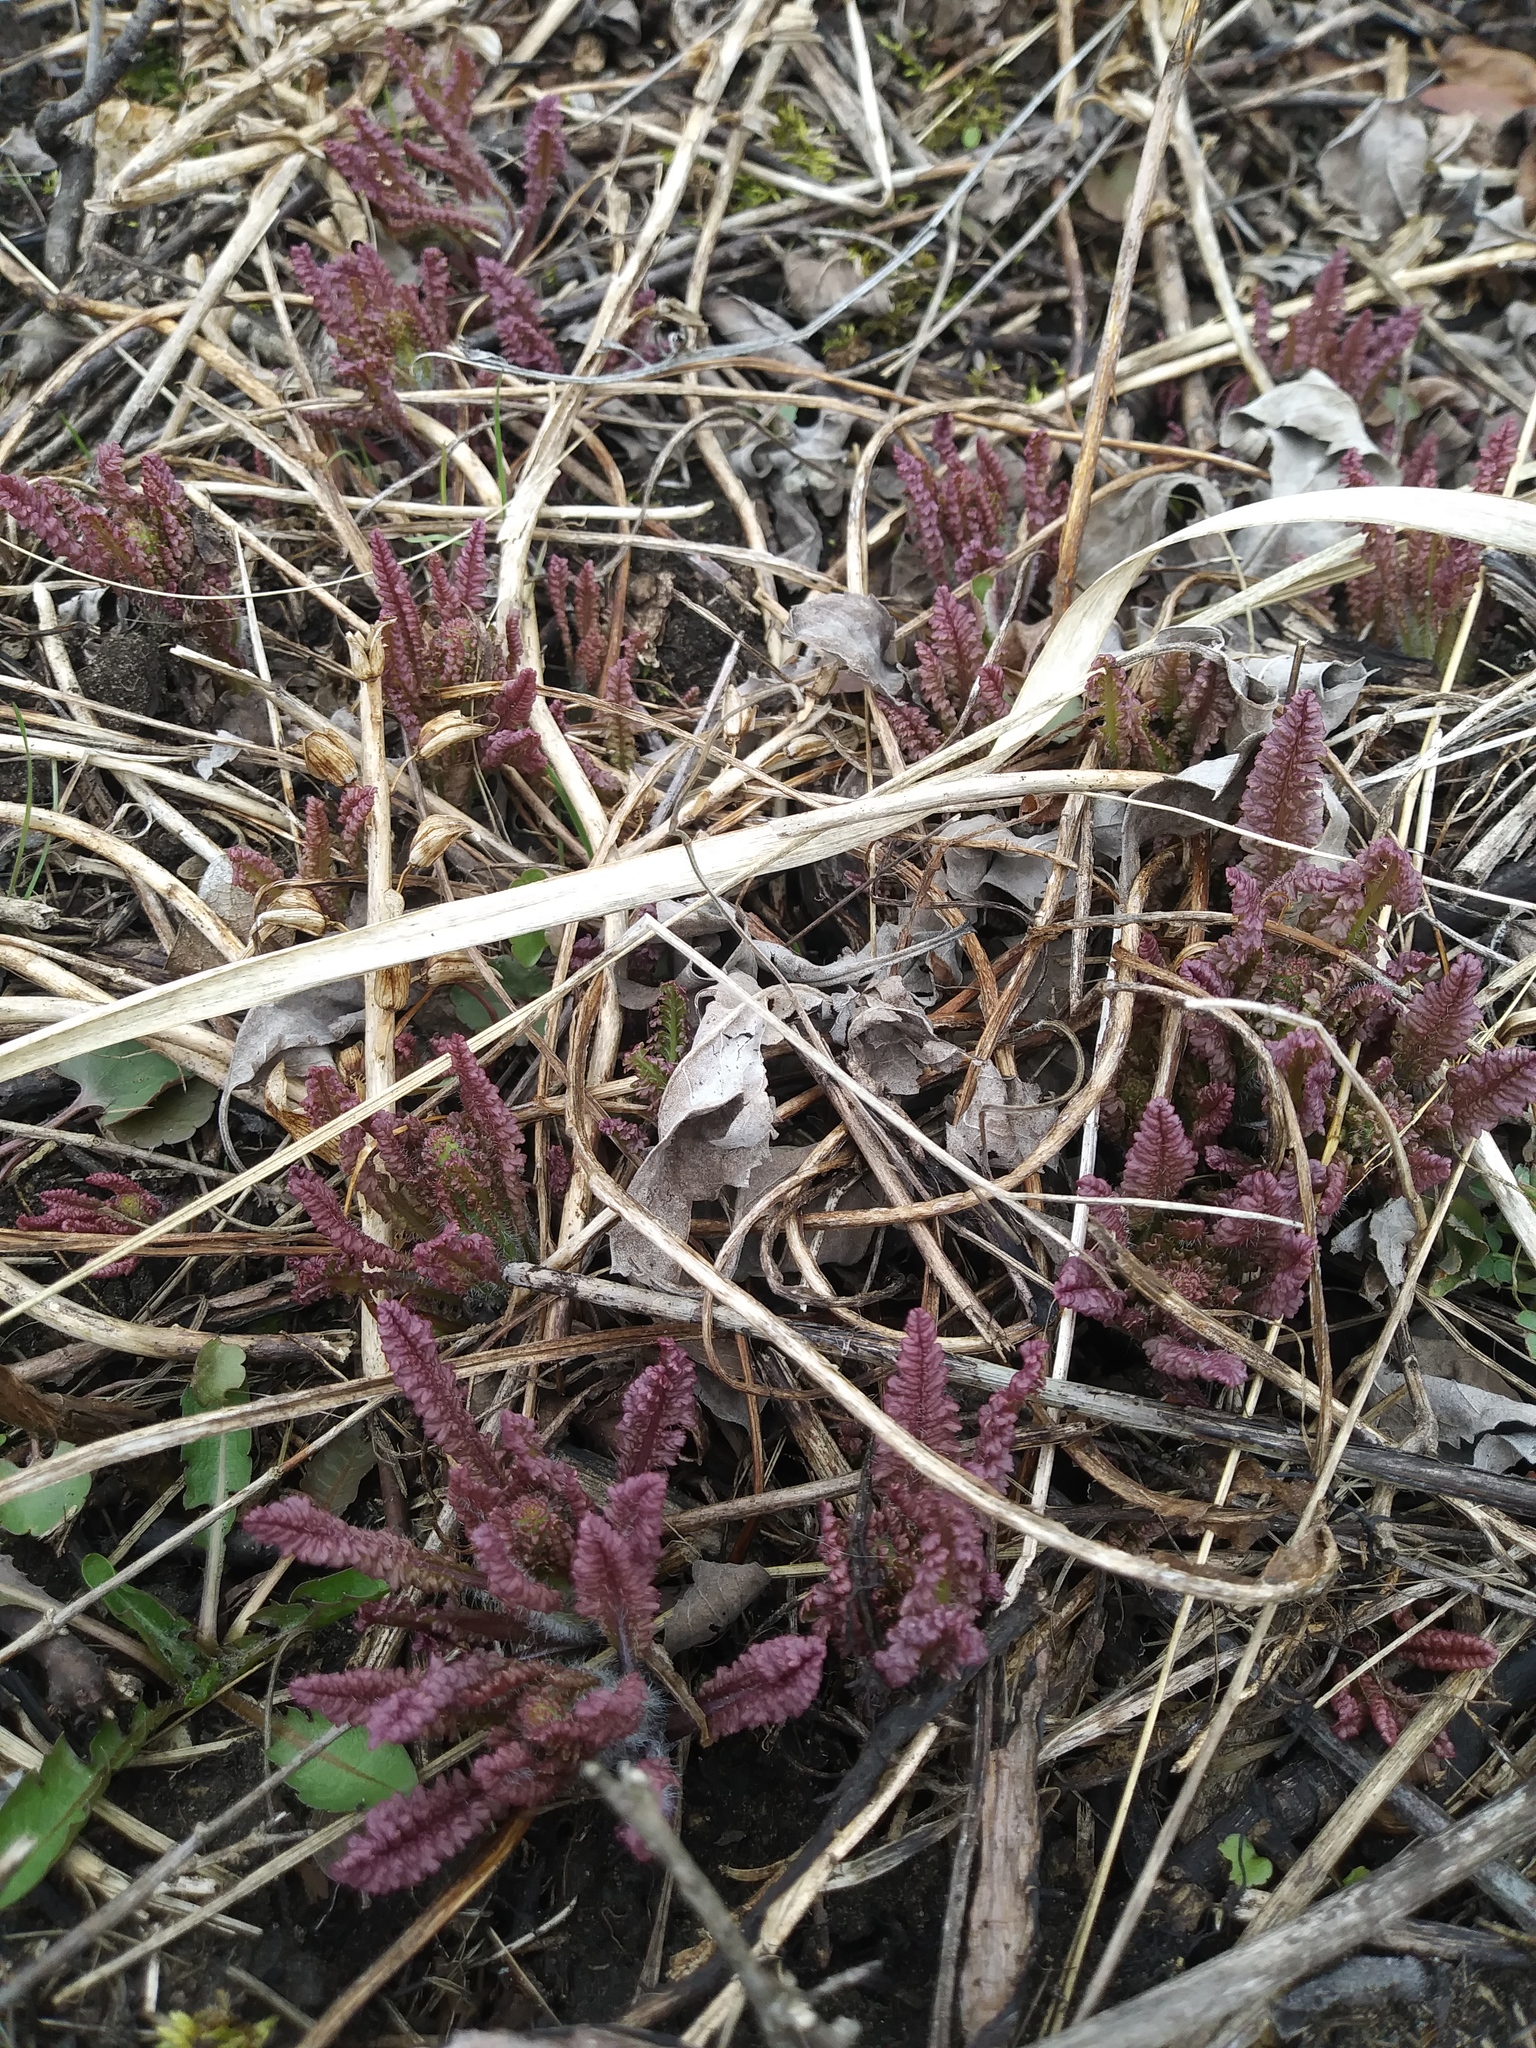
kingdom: Plantae
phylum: Tracheophyta
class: Magnoliopsida
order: Lamiales
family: Orobanchaceae
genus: Pedicularis
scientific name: Pedicularis canadensis
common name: Early lousewort
